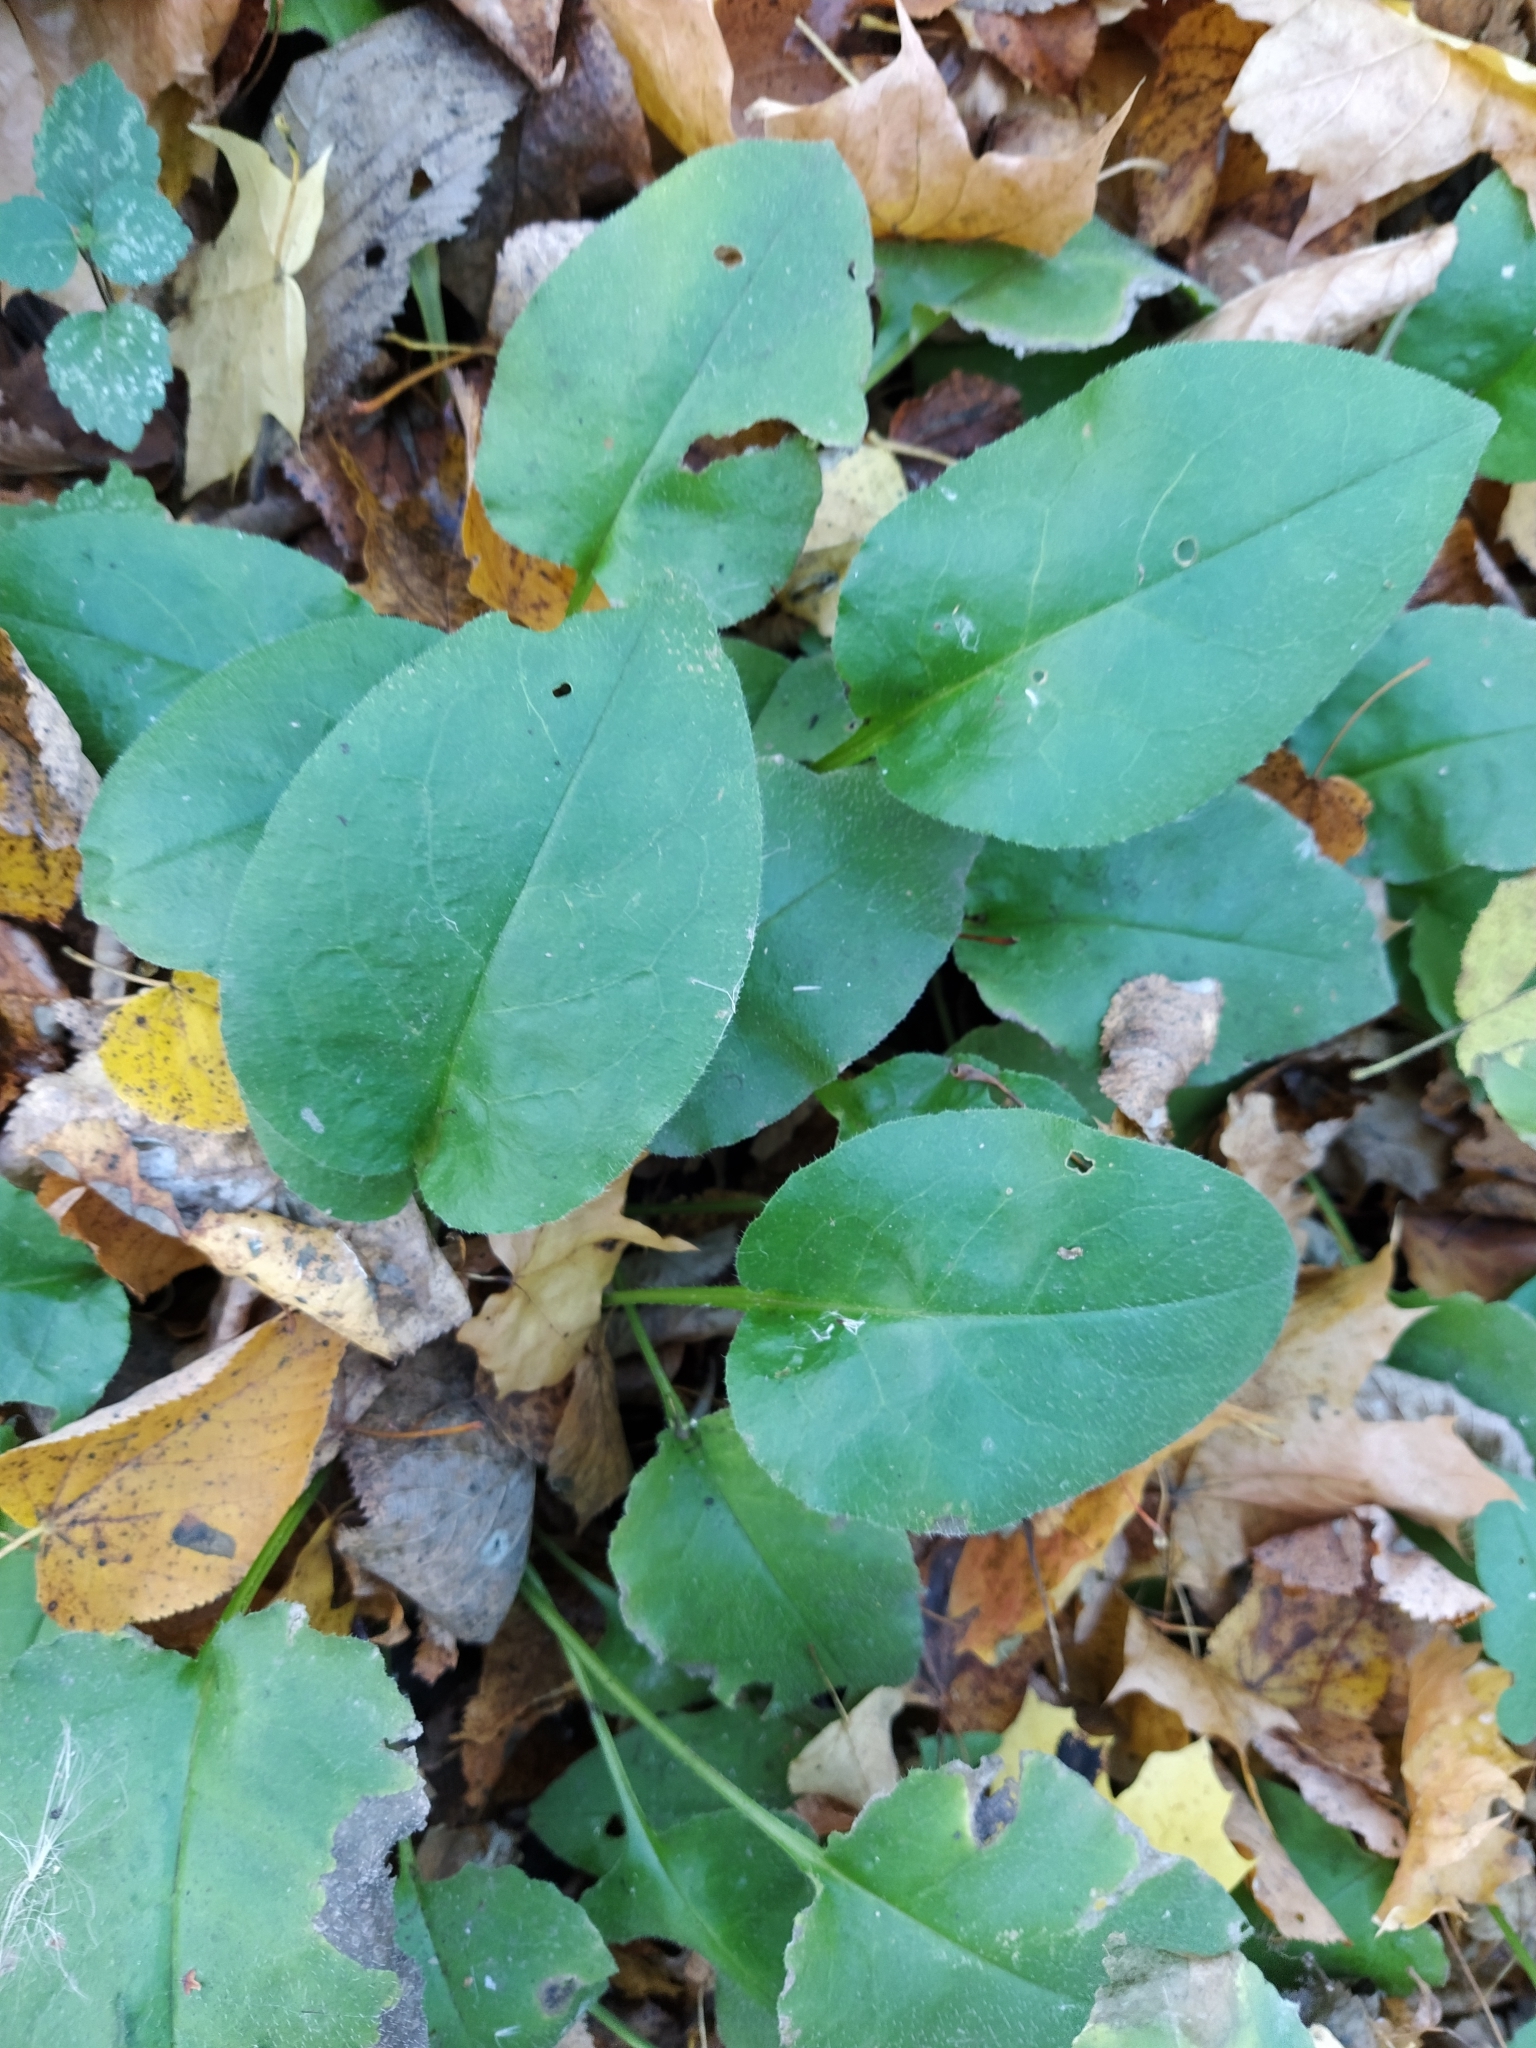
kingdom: Plantae
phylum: Tracheophyta
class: Magnoliopsida
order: Boraginales
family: Boraginaceae
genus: Pulmonaria
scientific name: Pulmonaria obscura
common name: Suffolk lungwort
